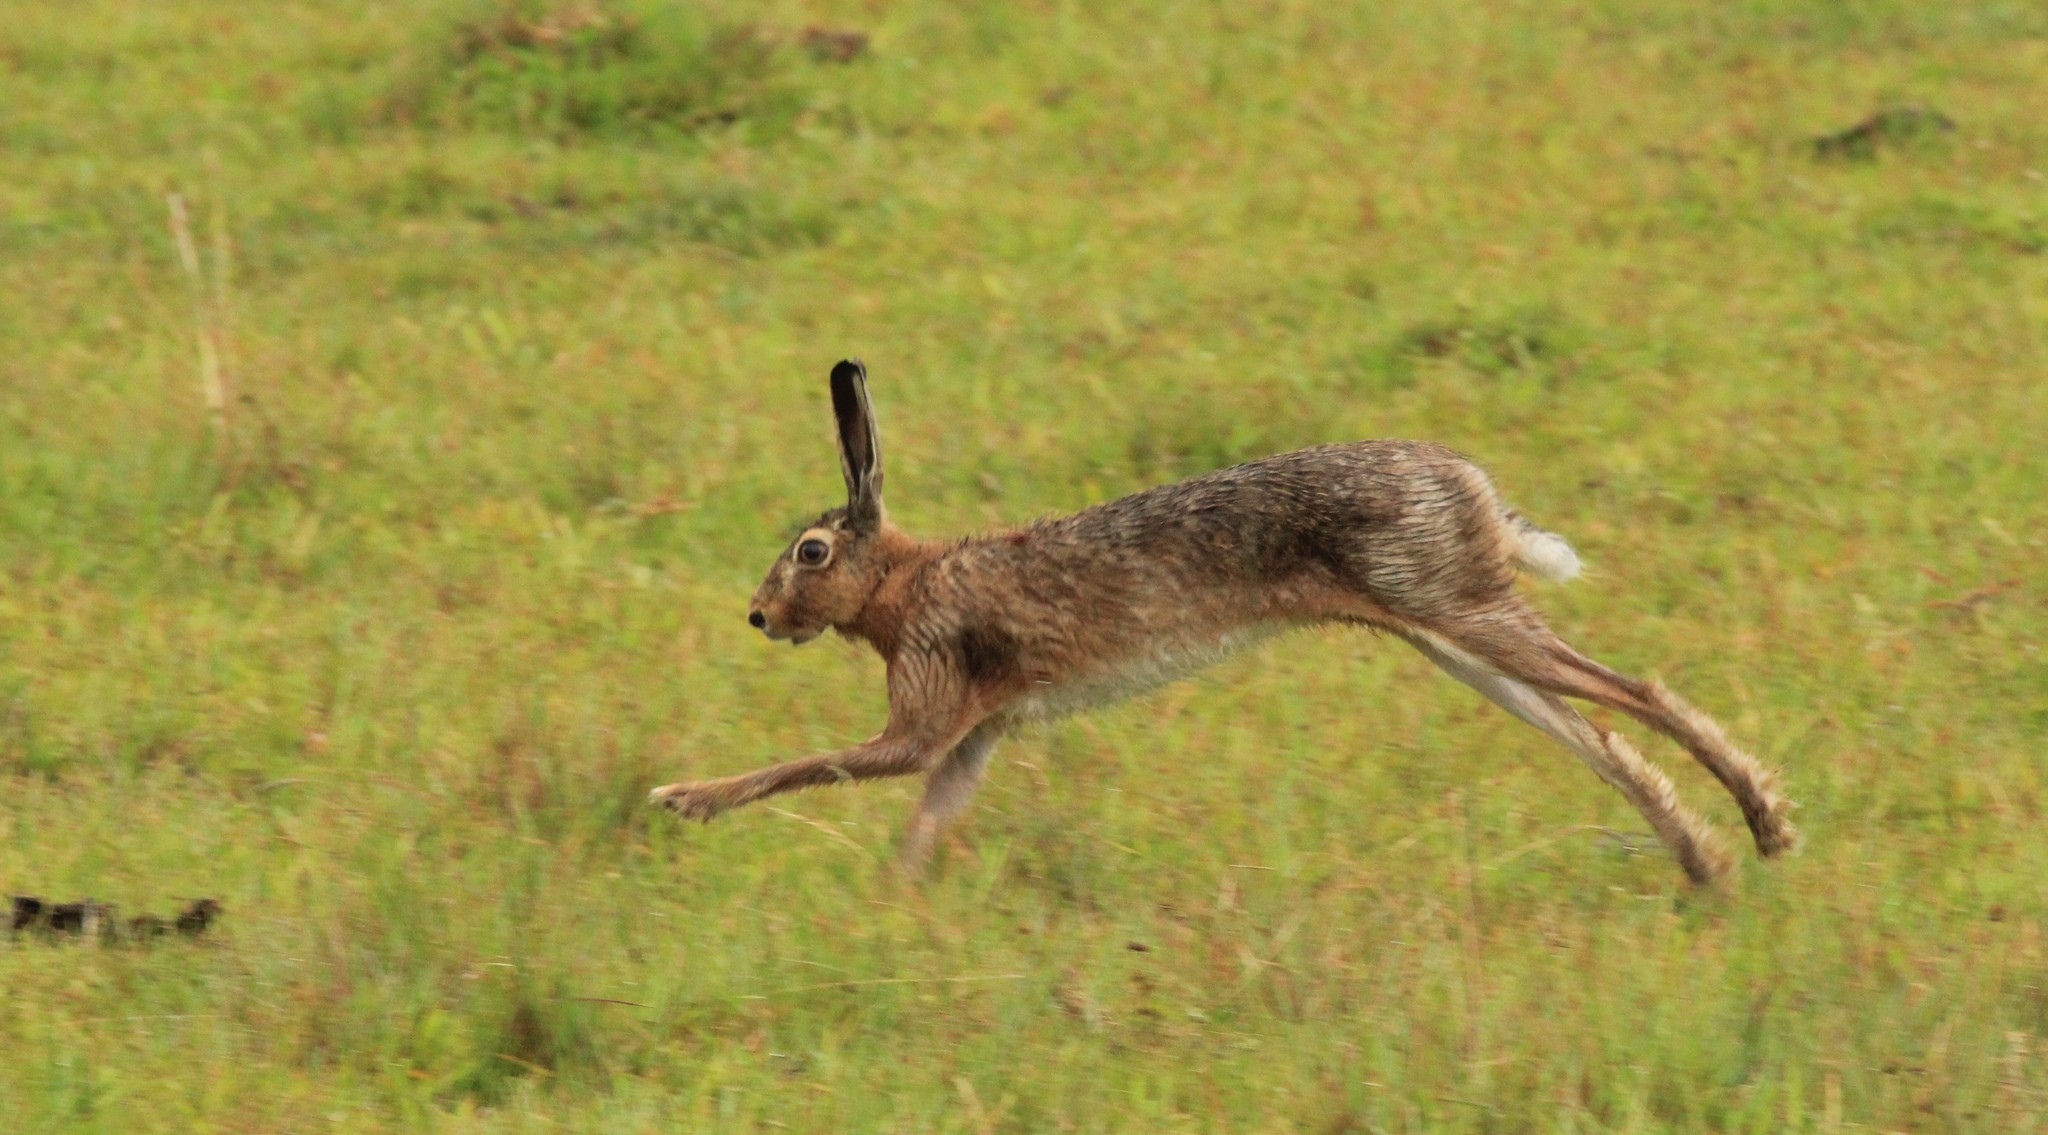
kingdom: Animalia
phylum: Chordata
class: Mammalia
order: Lagomorpha
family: Leporidae
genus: Lepus
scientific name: Lepus europaeus
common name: European hare
